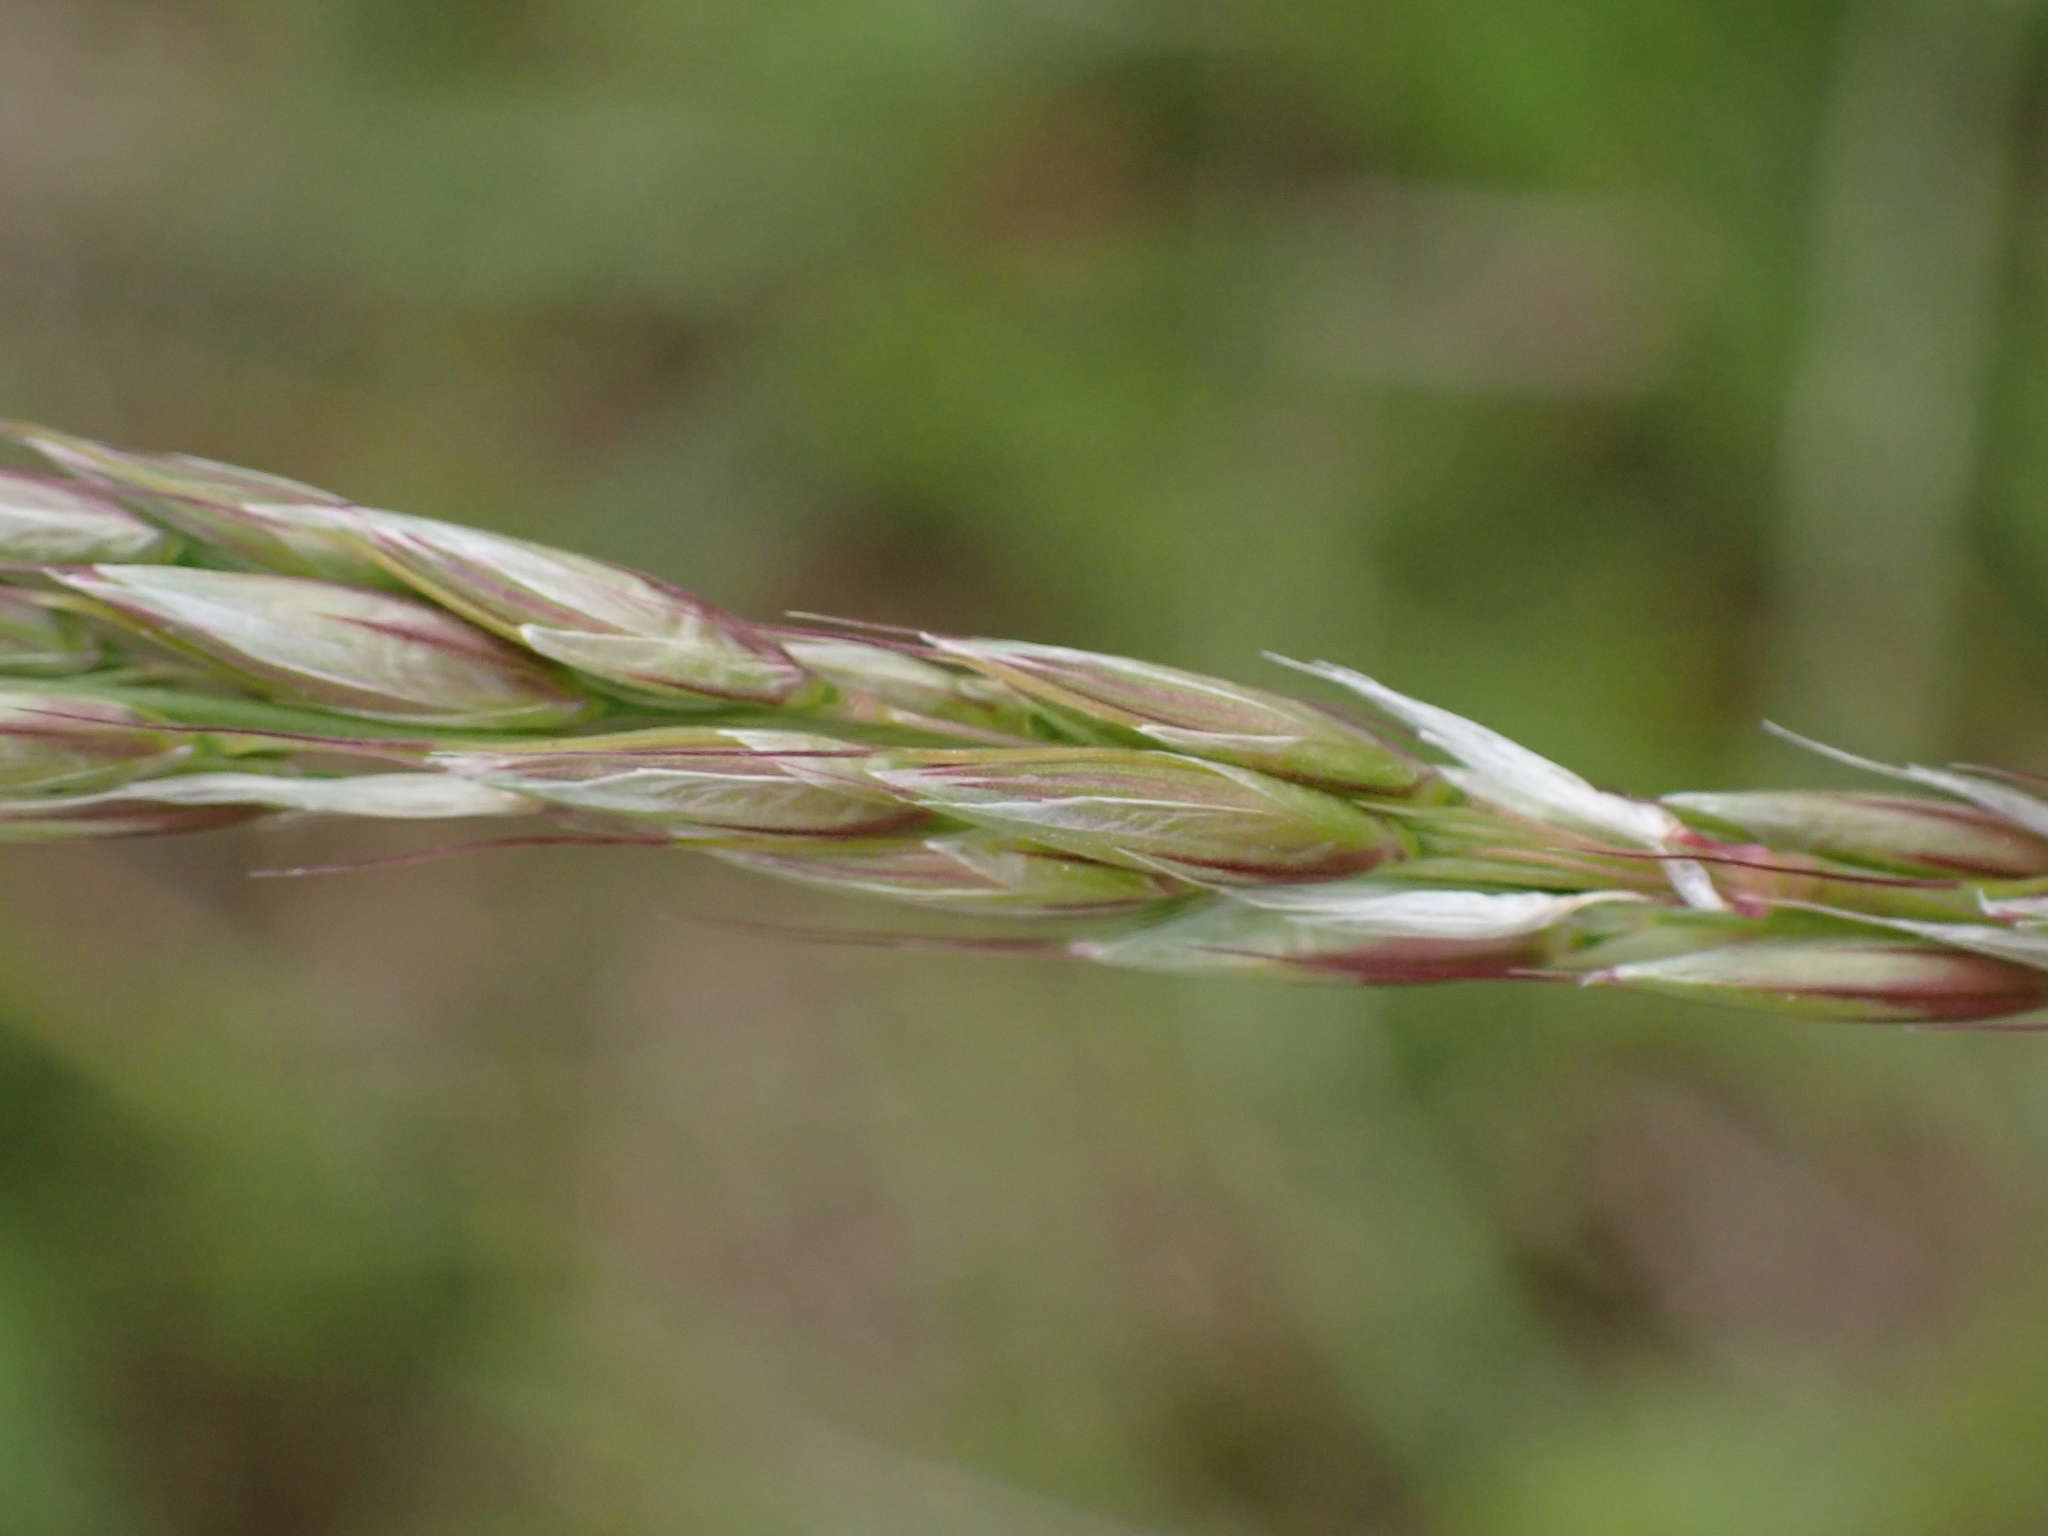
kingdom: Plantae
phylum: Tracheophyta
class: Liliopsida
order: Poales
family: Poaceae
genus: Arrhenatherum
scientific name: Arrhenatherum elatius
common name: Tall oatgrass
